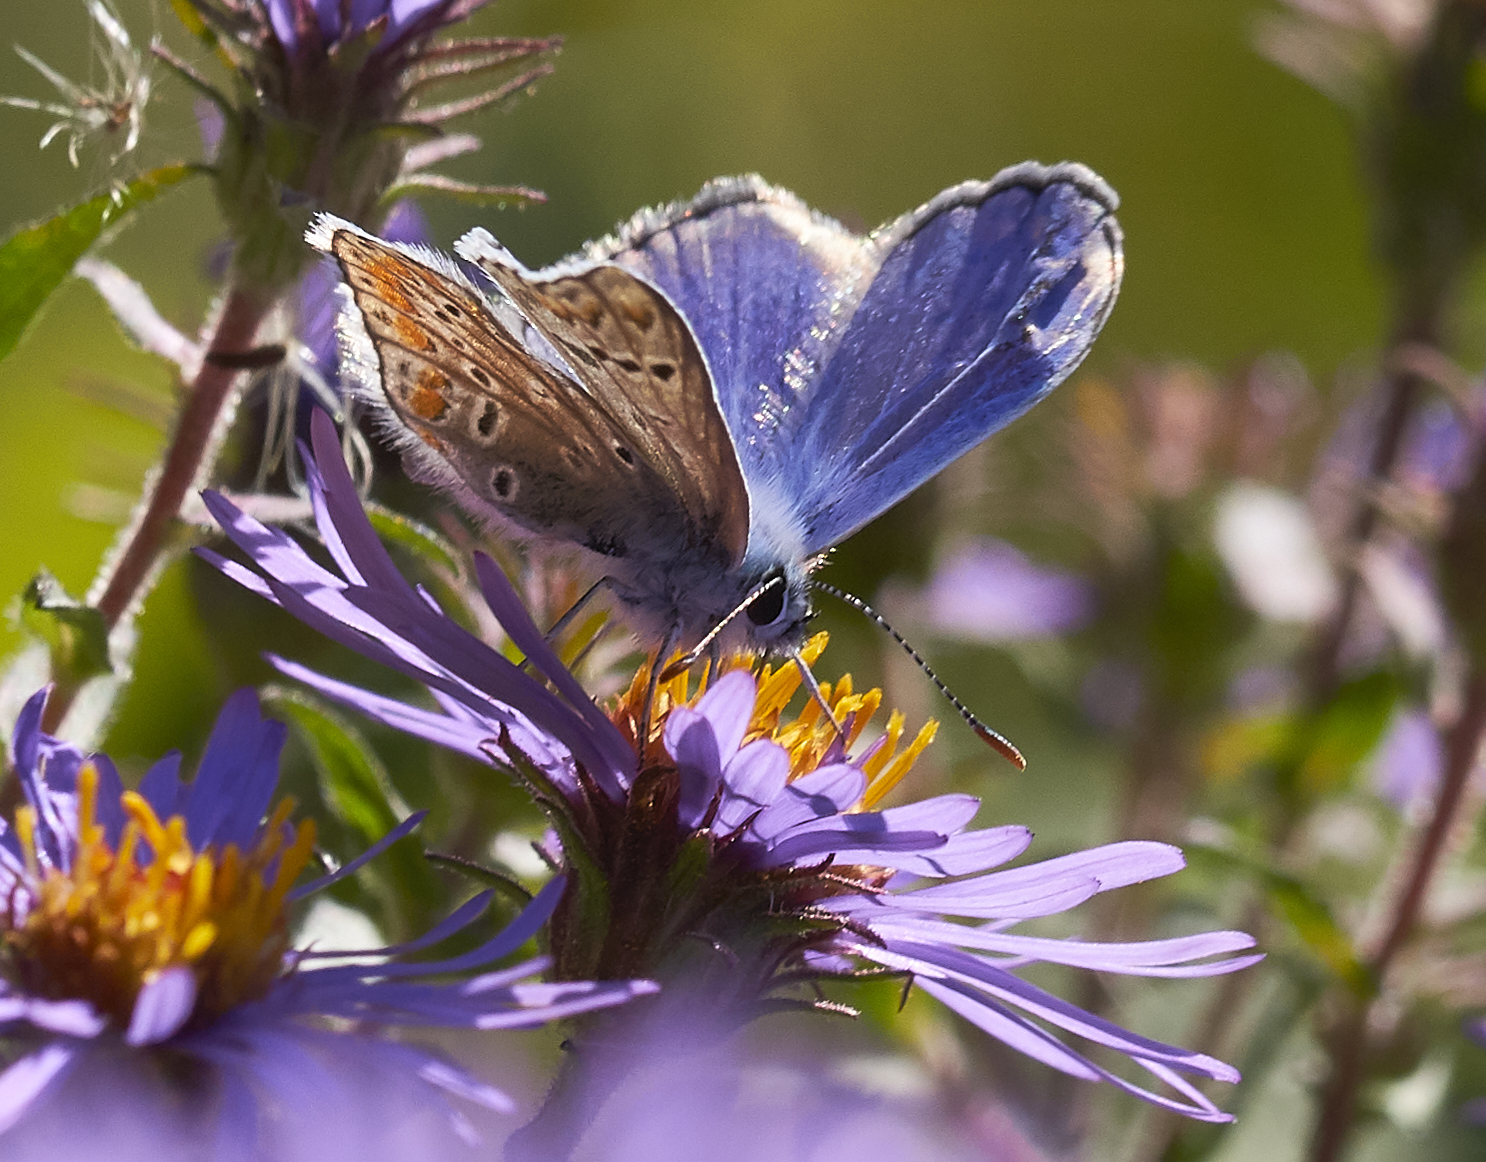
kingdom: Animalia
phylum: Arthropoda
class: Insecta
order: Lepidoptera
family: Lycaenidae
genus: Polyommatus
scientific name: Polyommatus icarus
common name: Common blue
